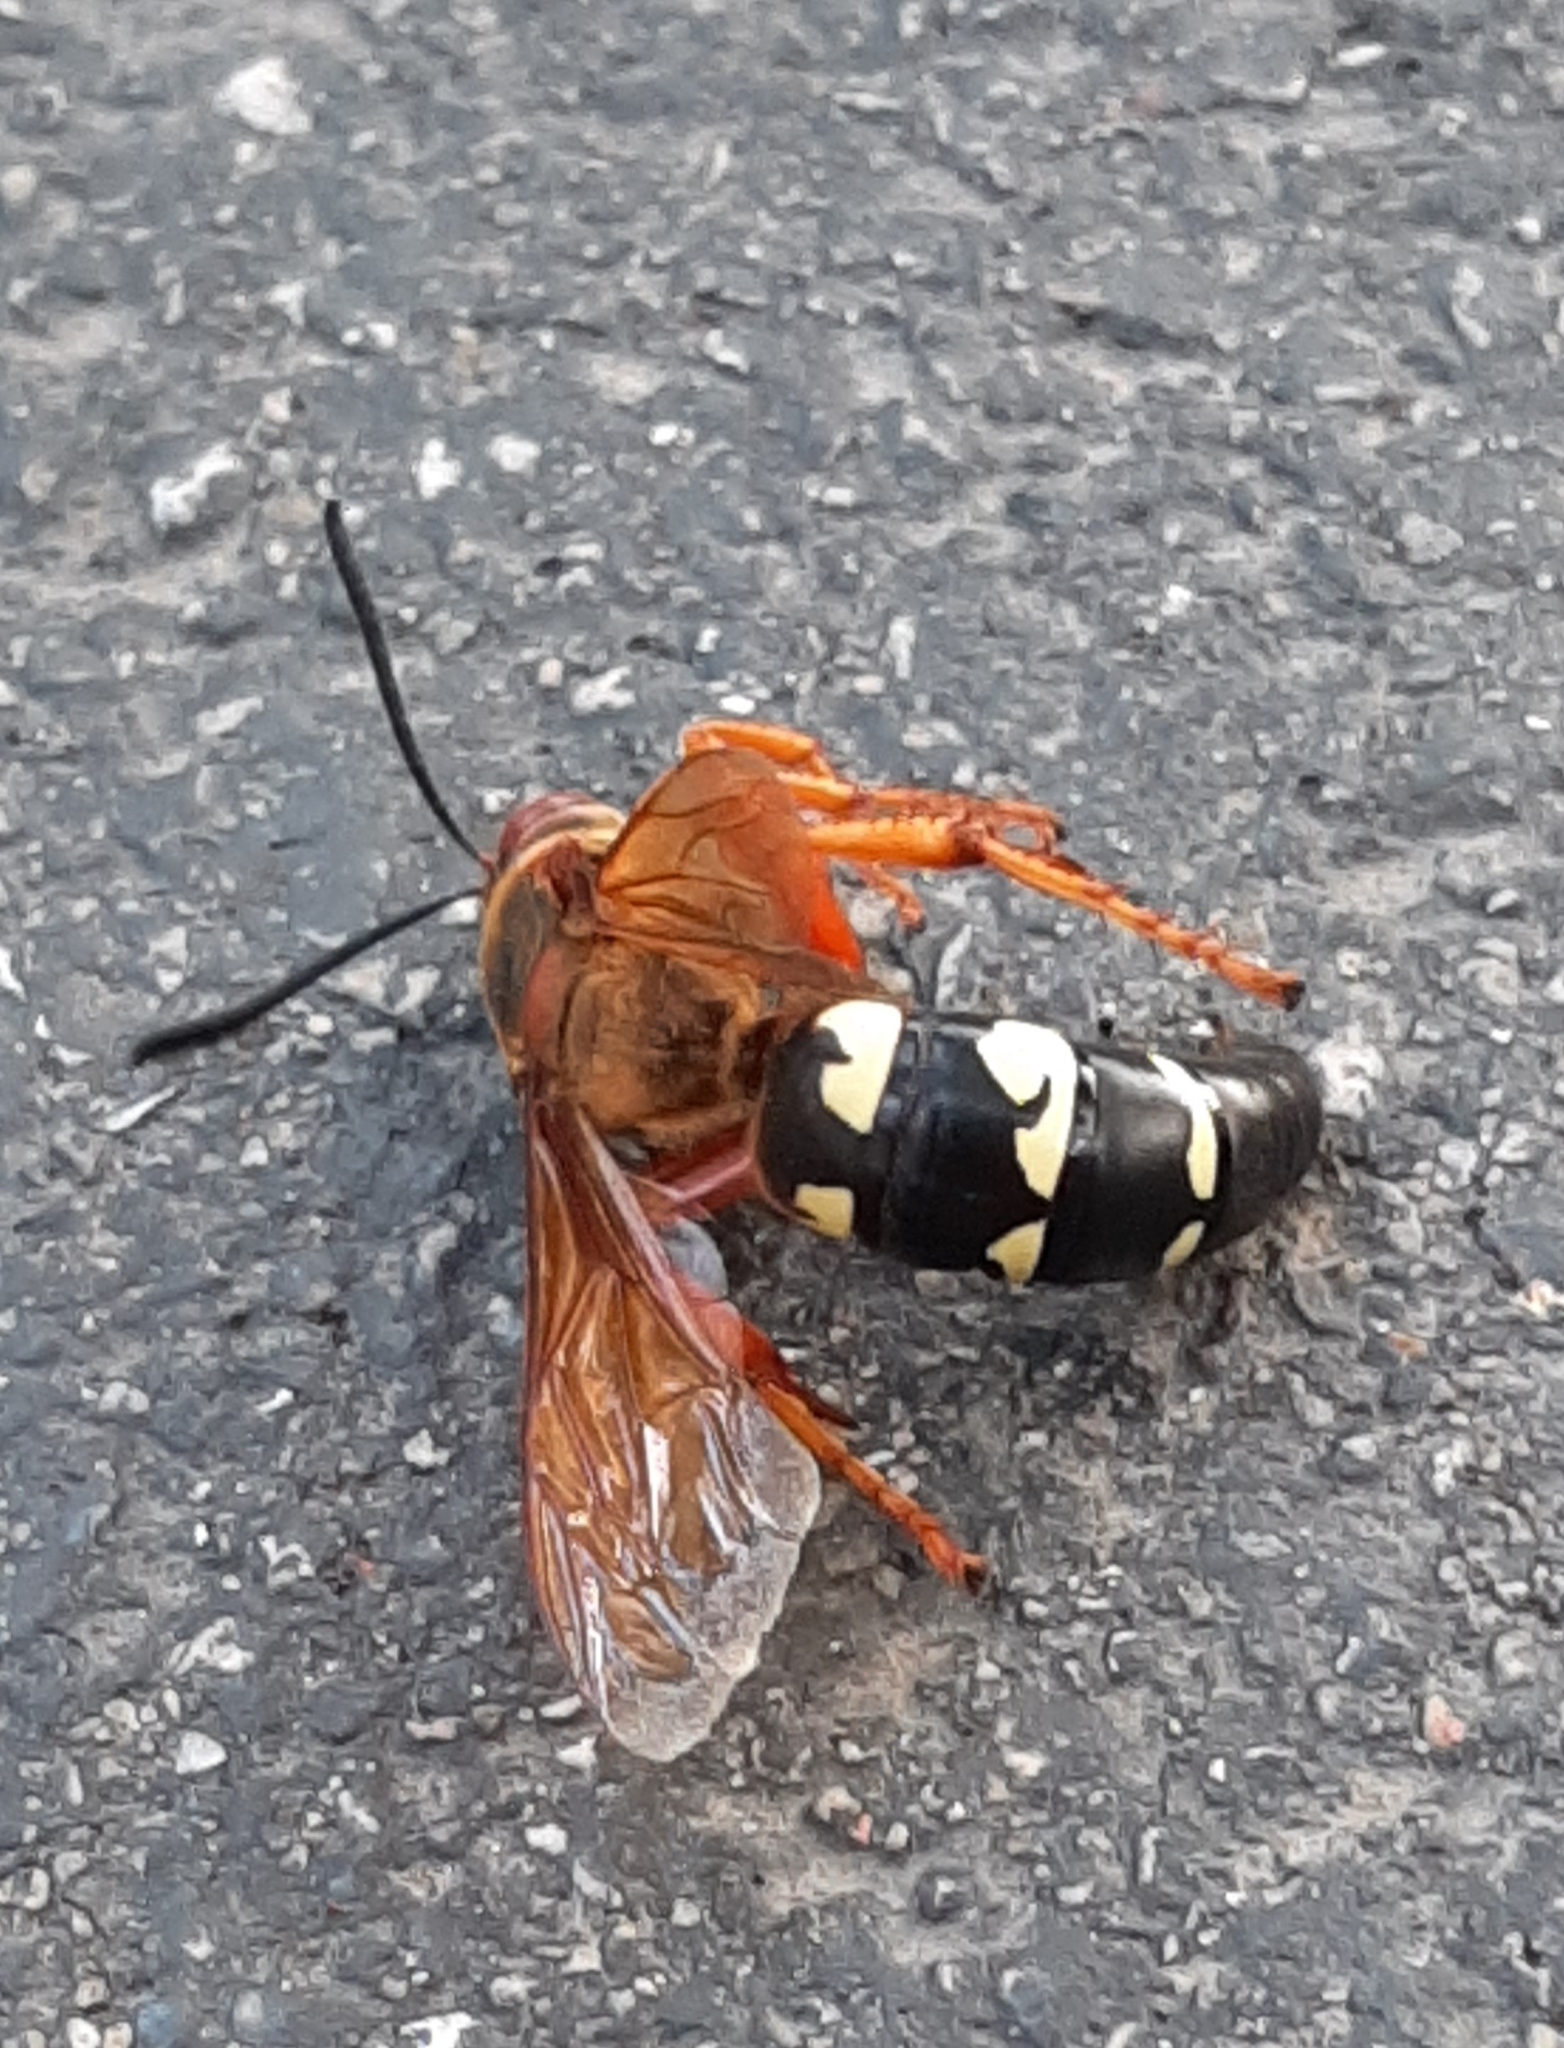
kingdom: Animalia
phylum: Arthropoda
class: Insecta
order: Hymenoptera
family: Crabronidae
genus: Sphecius
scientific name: Sphecius speciosus
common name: Cicada killer
